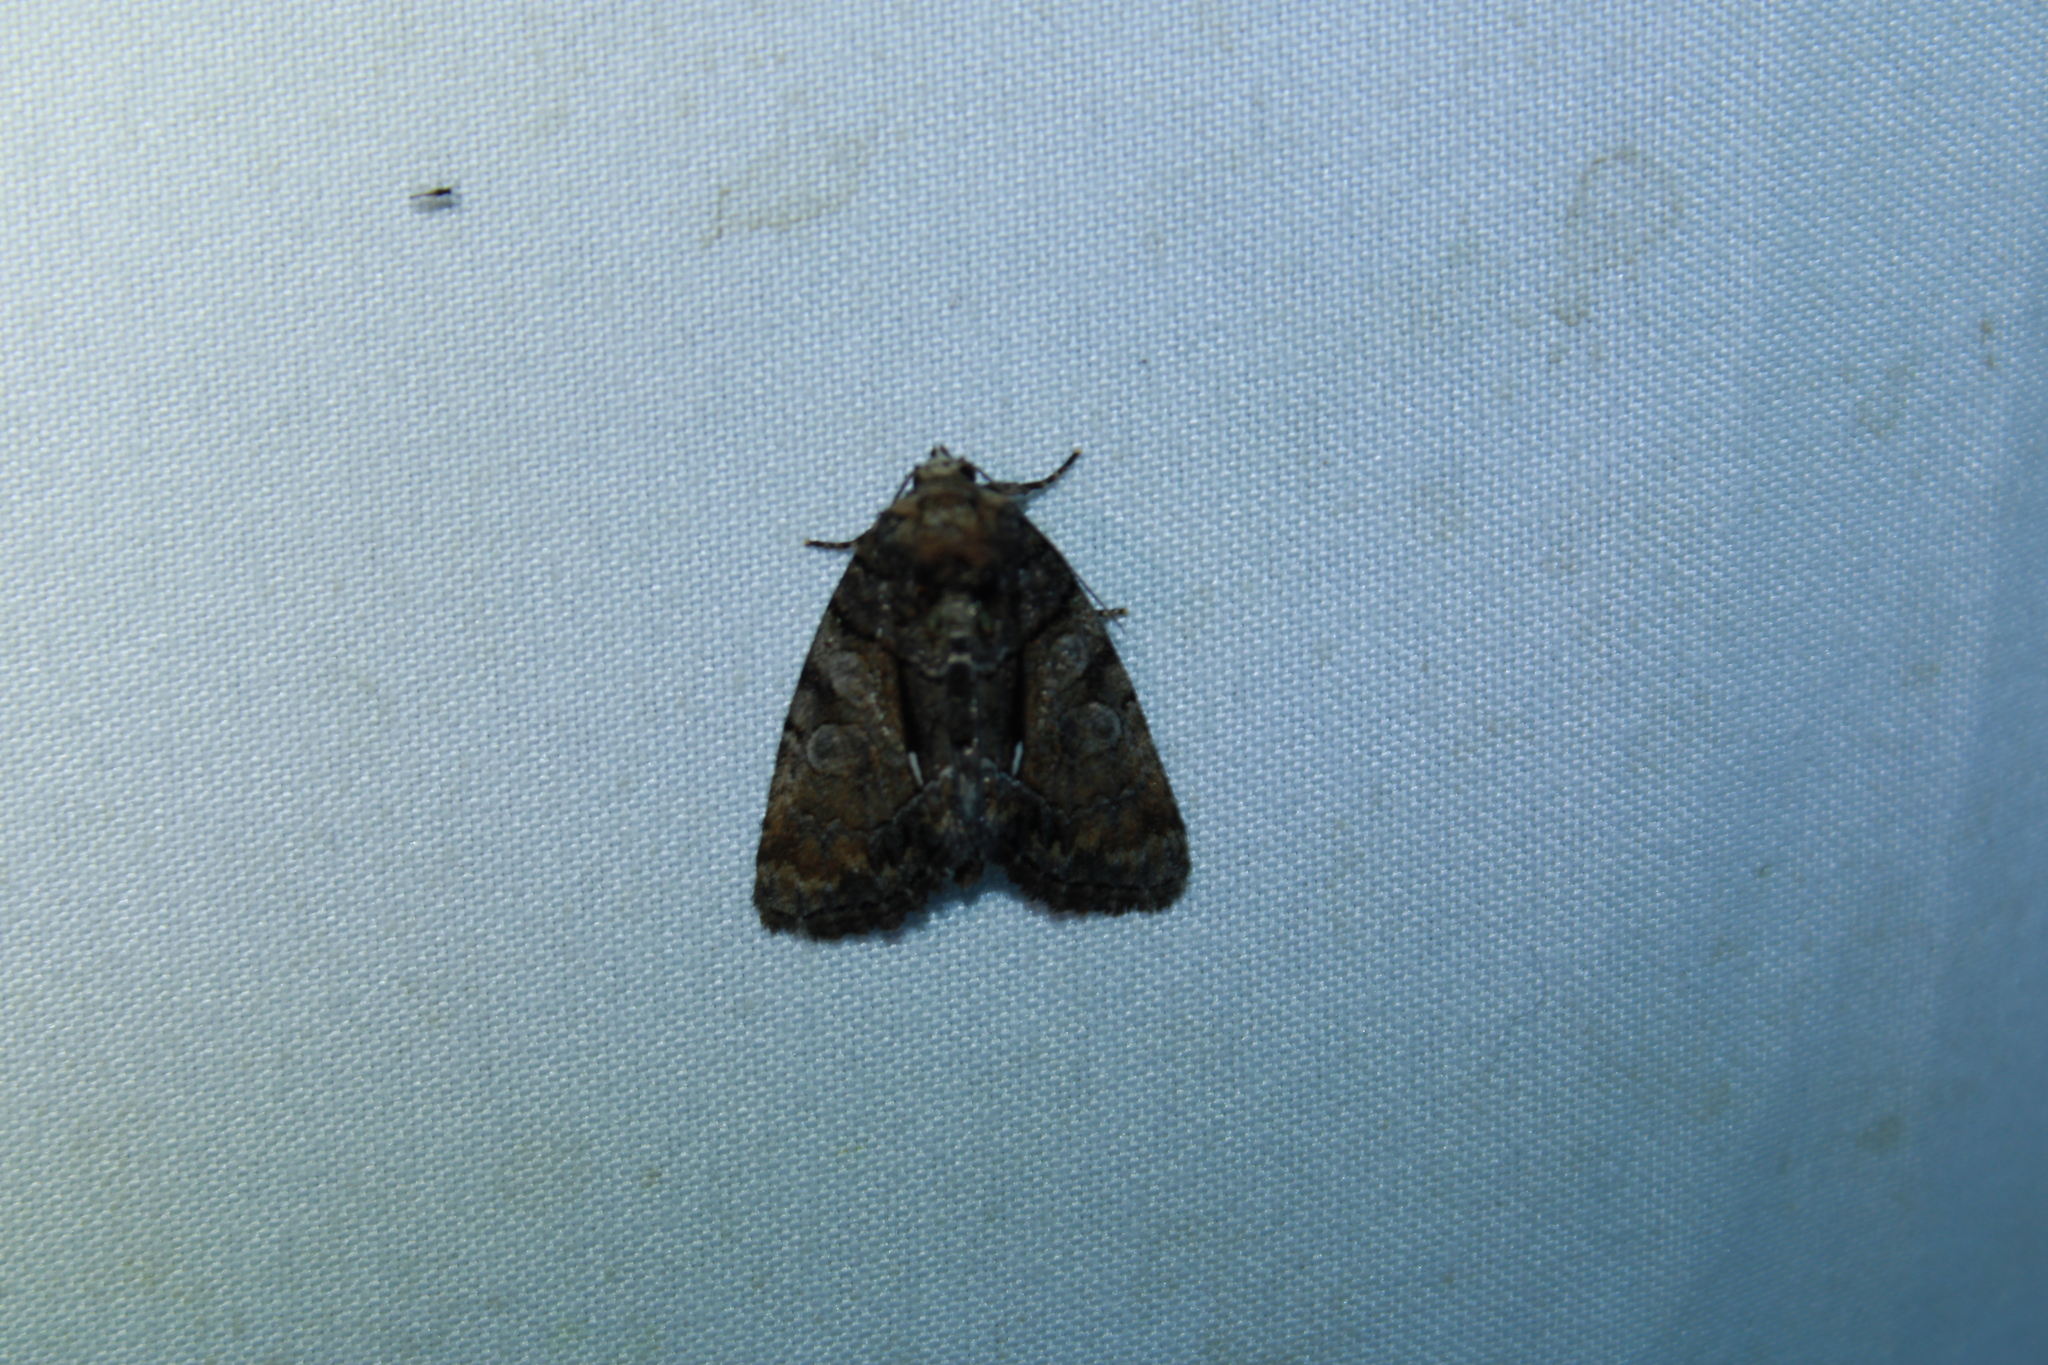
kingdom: Animalia
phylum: Arthropoda
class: Insecta
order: Lepidoptera
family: Noctuidae
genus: Chytonix
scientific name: Chytonix palliatricula
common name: Cloaked marvel
